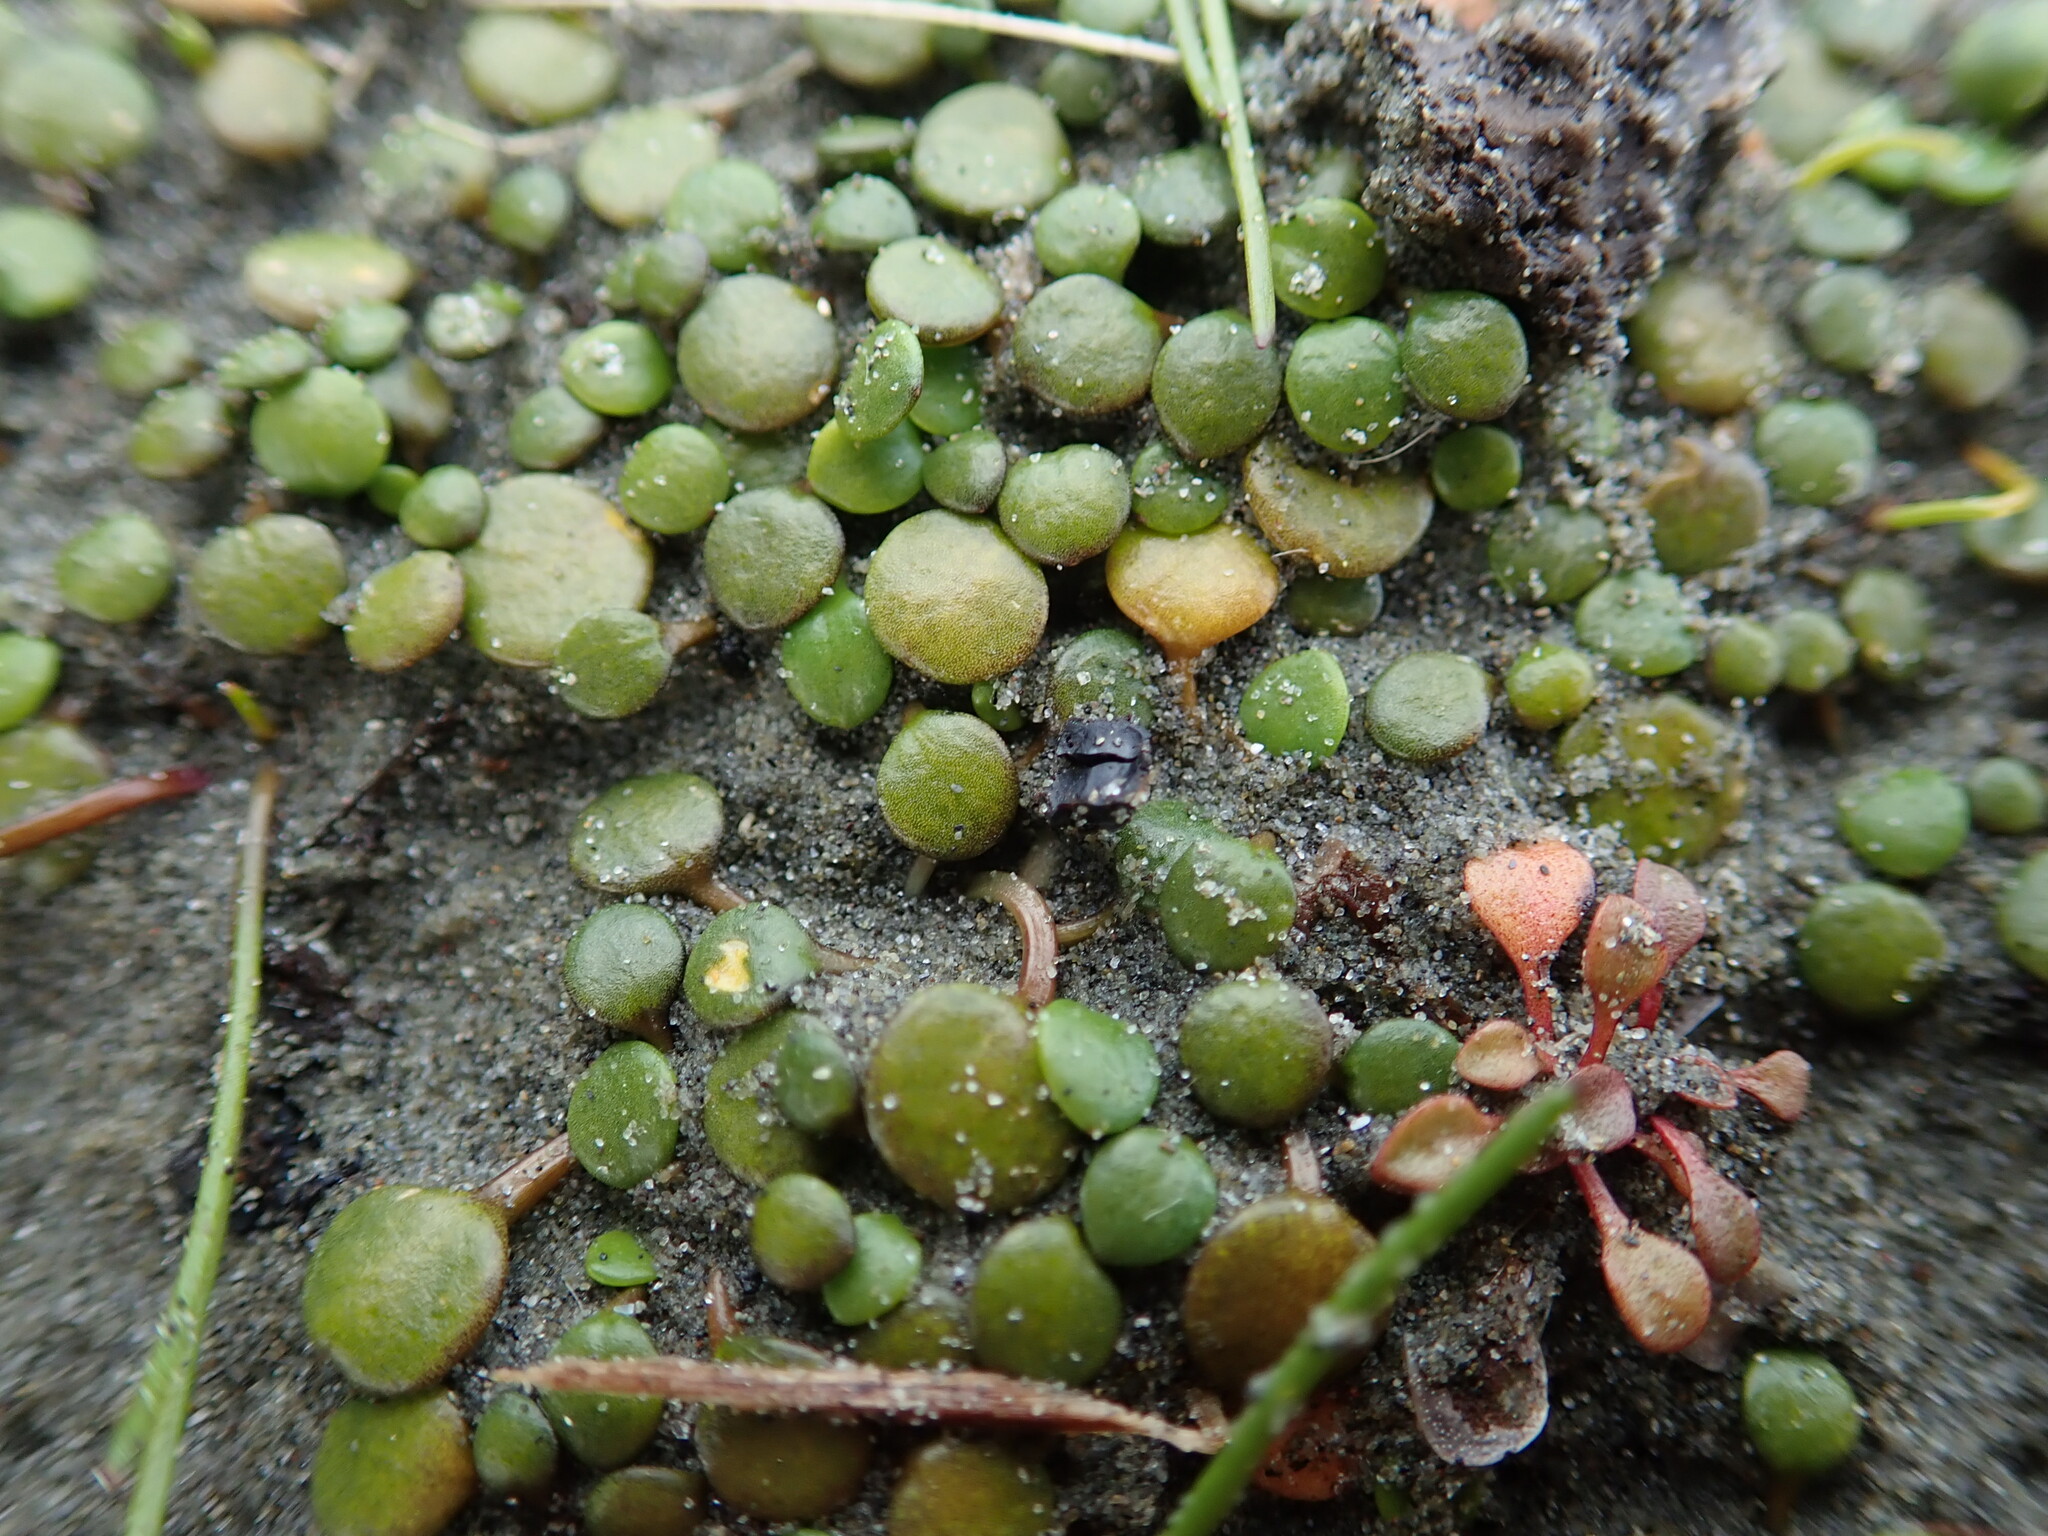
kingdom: Plantae
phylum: Tracheophyta
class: Magnoliopsida
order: Asterales
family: Goodeniaceae
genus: Goodenia
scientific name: Goodenia heenanii
